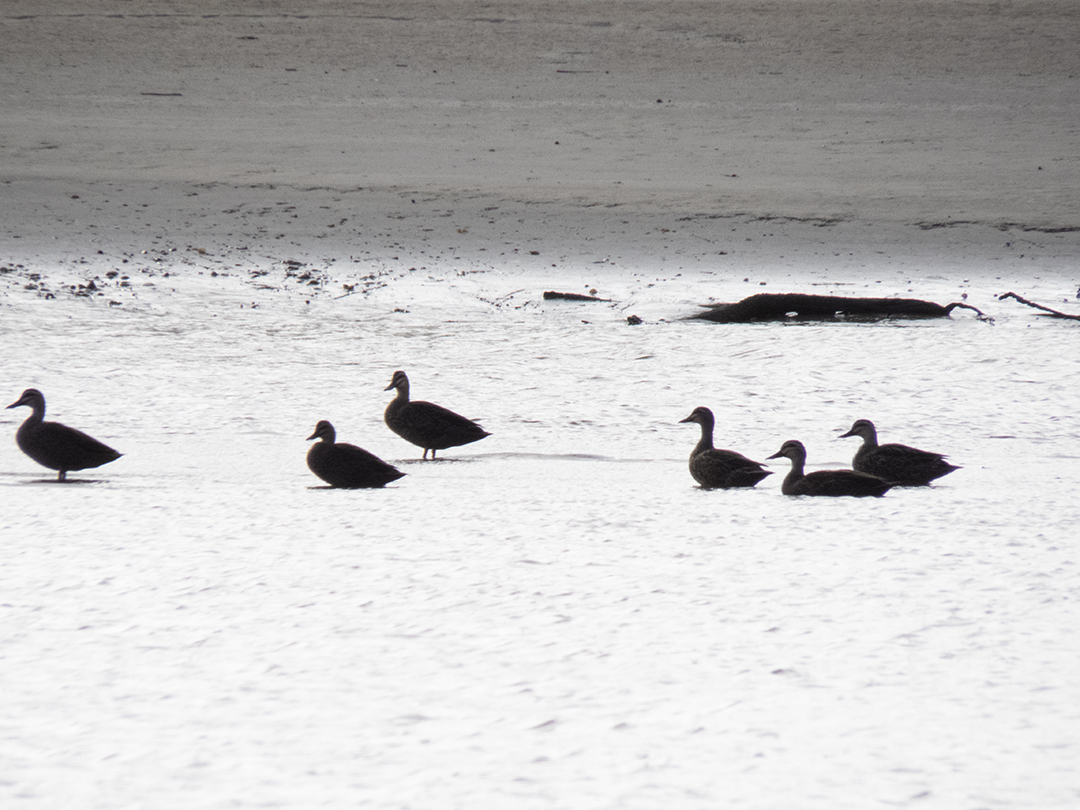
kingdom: Animalia
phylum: Chordata
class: Aves
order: Anseriformes
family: Anatidae
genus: Anas
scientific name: Anas
